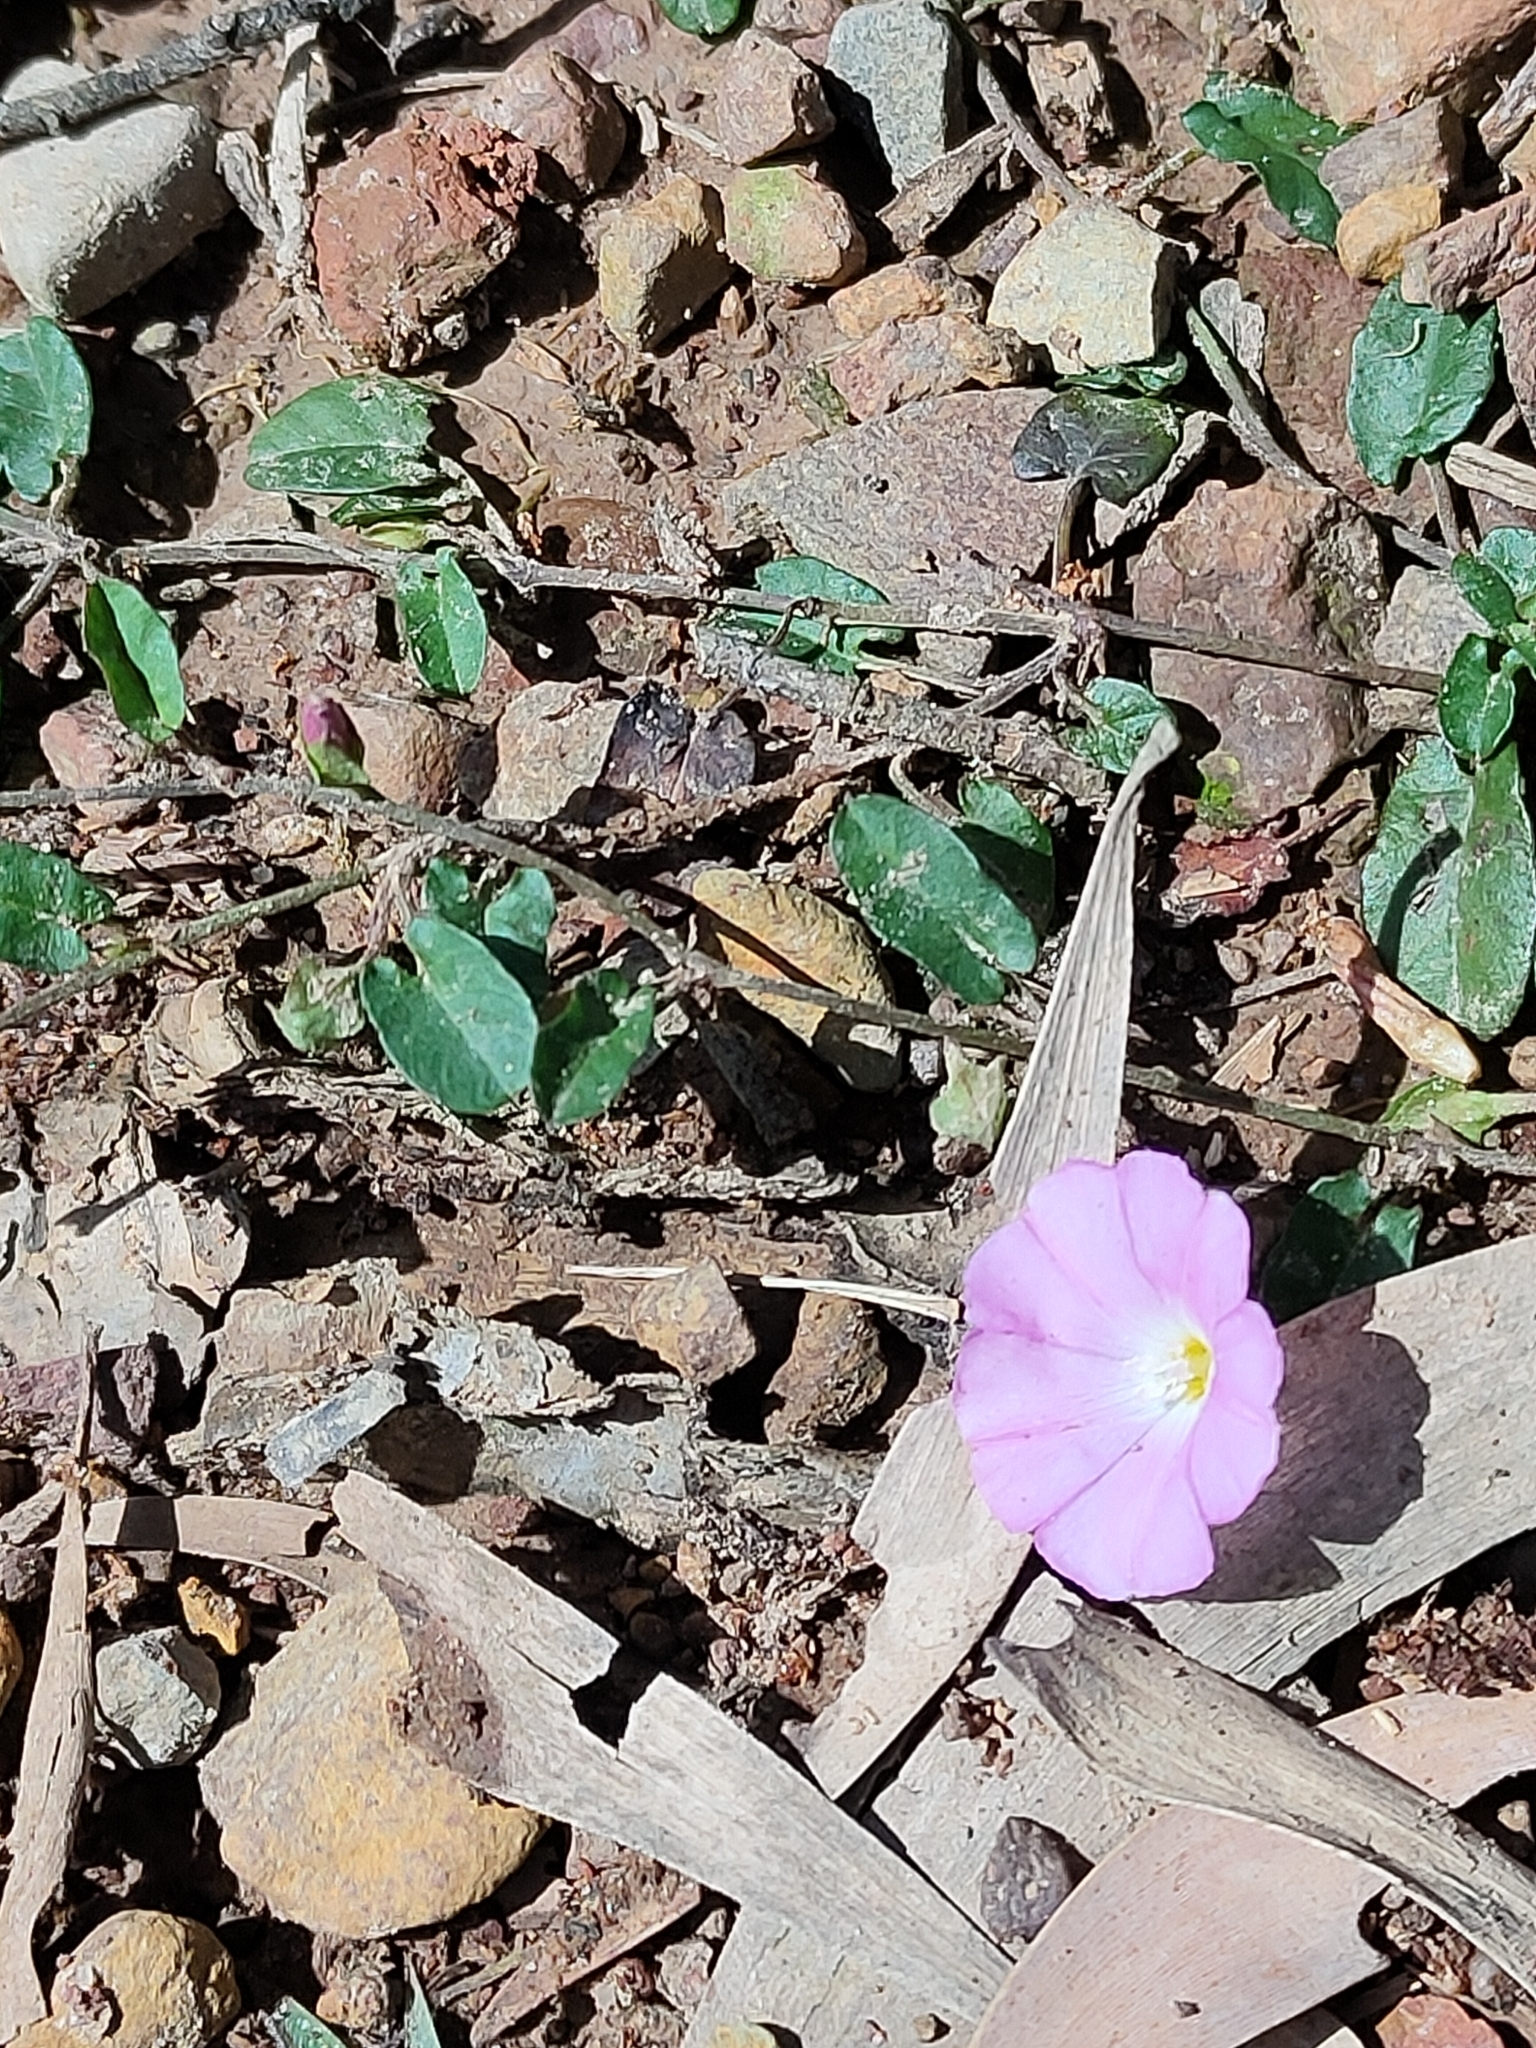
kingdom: Plantae
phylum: Tracheophyta
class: Magnoliopsida
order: Solanales
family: Convolvulaceae
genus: Polymeria
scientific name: Polymeria calycina
